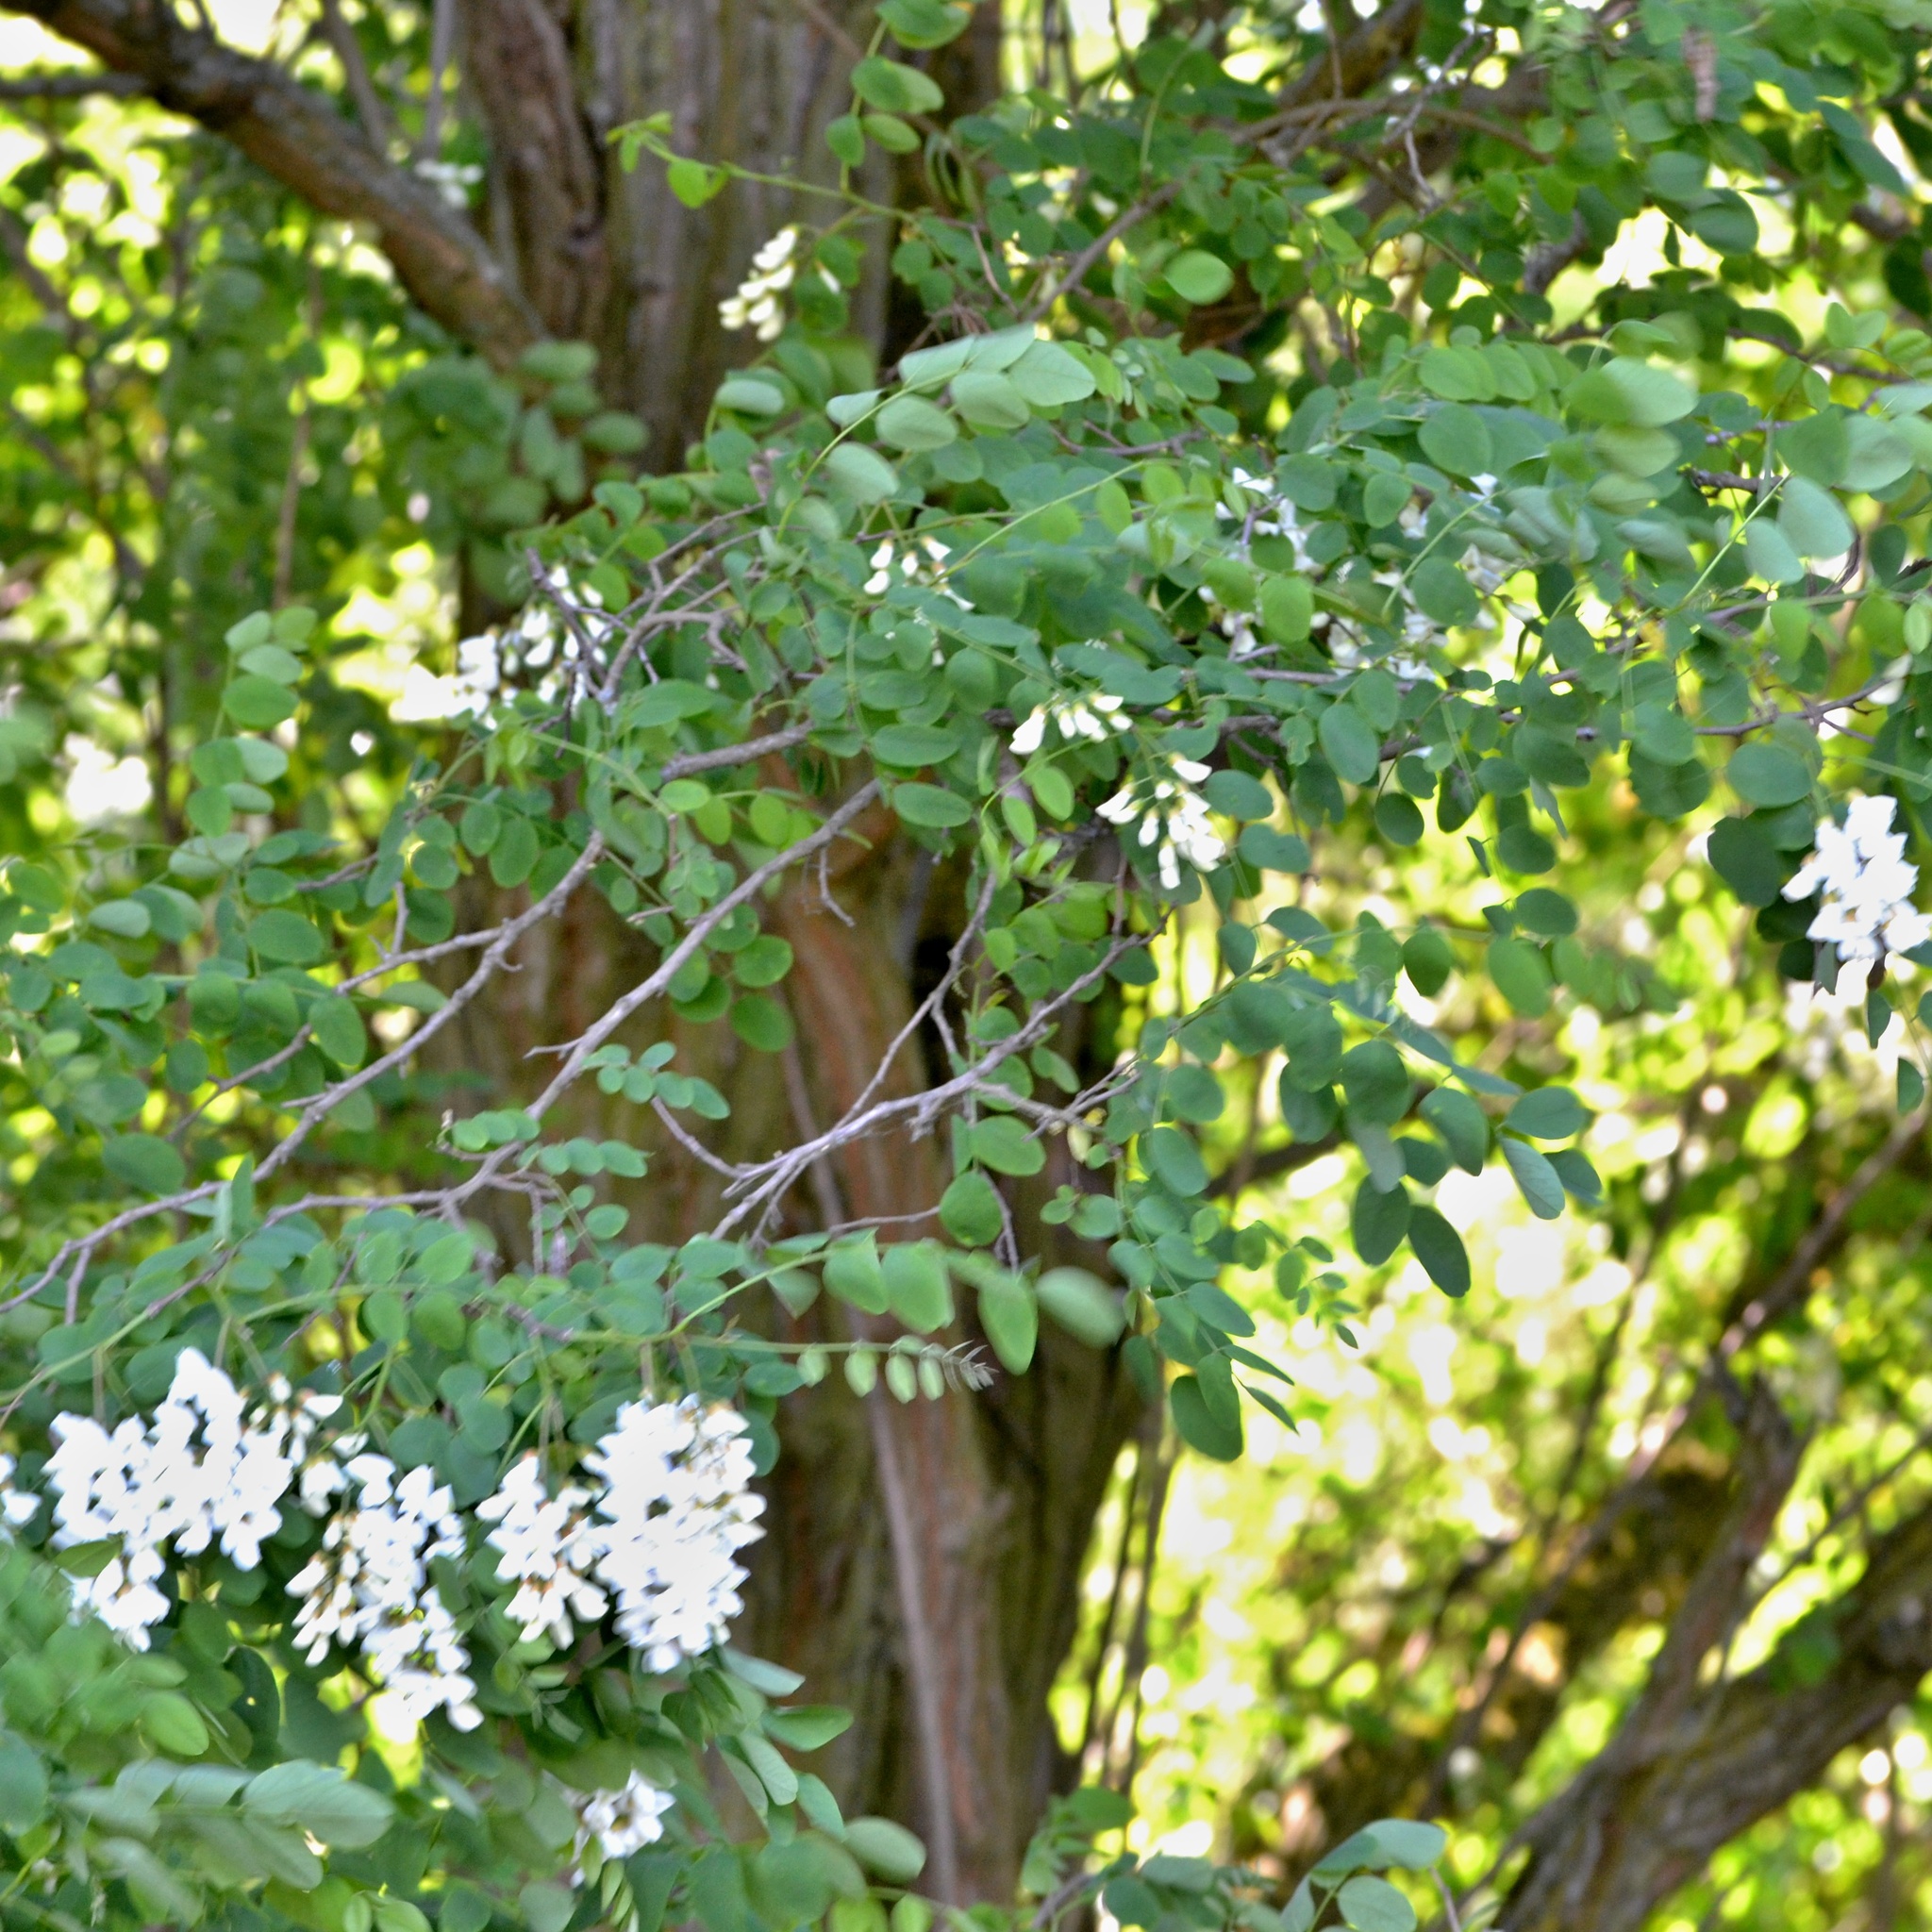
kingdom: Plantae
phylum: Tracheophyta
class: Magnoliopsida
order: Fabales
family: Fabaceae
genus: Robinia
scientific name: Robinia pseudoacacia
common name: Black locust
